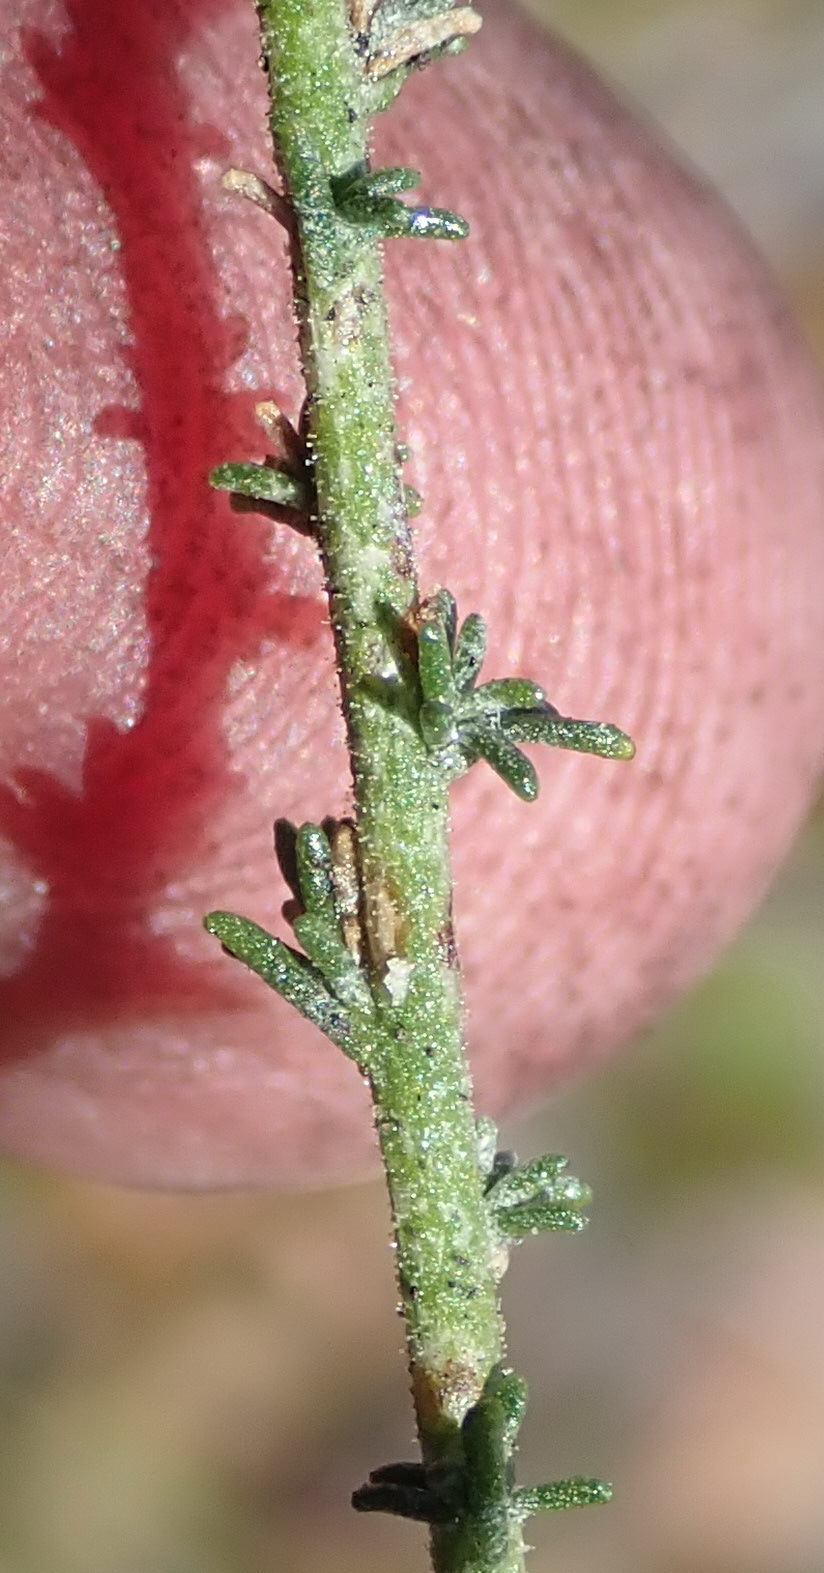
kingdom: Plantae
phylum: Tracheophyta
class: Magnoliopsida
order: Lamiales
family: Scrophulariaceae
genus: Jamesbrittenia
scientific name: Jamesbrittenia aspalathoides
